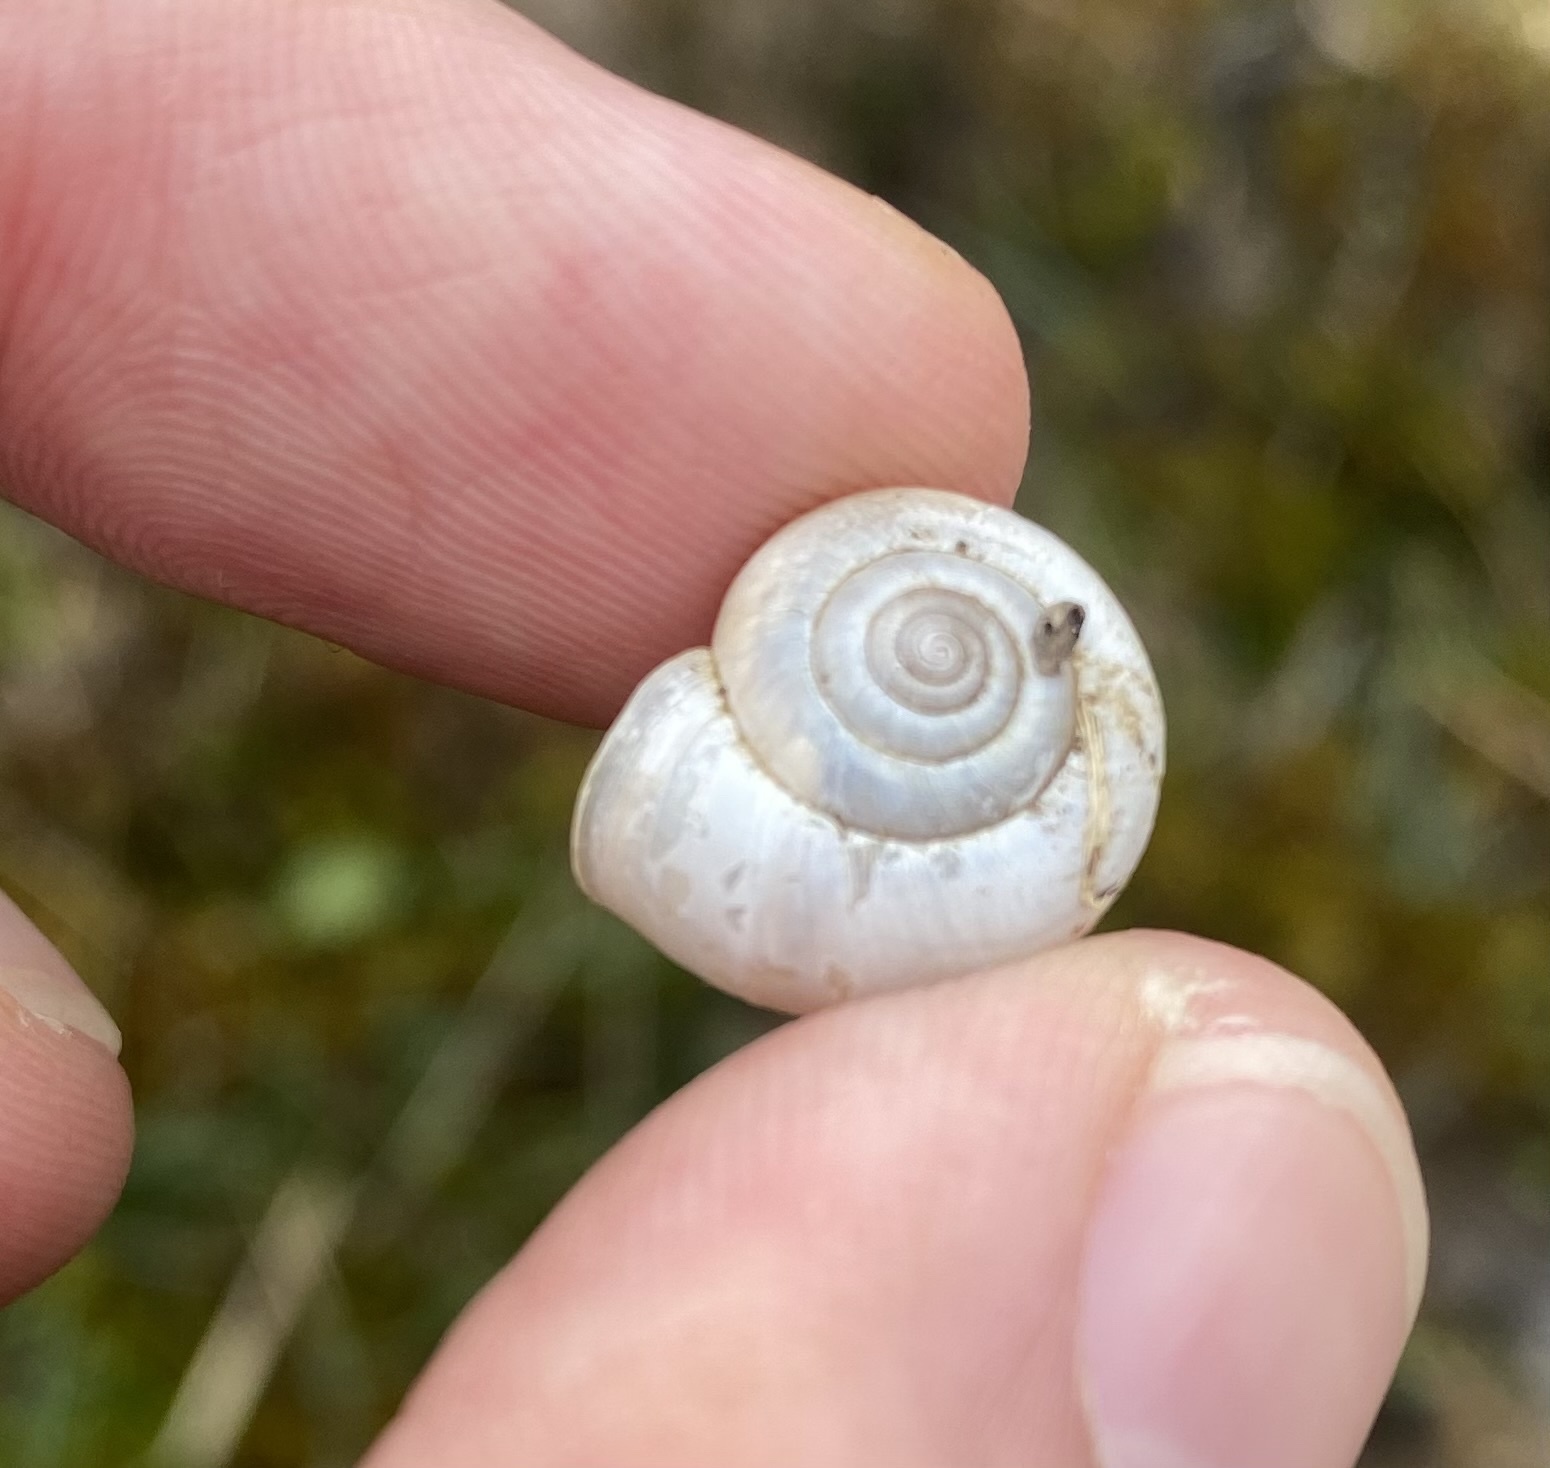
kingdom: Animalia
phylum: Mollusca
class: Gastropoda
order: Stylommatophora
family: Hygromiidae
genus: Monacha
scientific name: Monacha subcarthusiana
